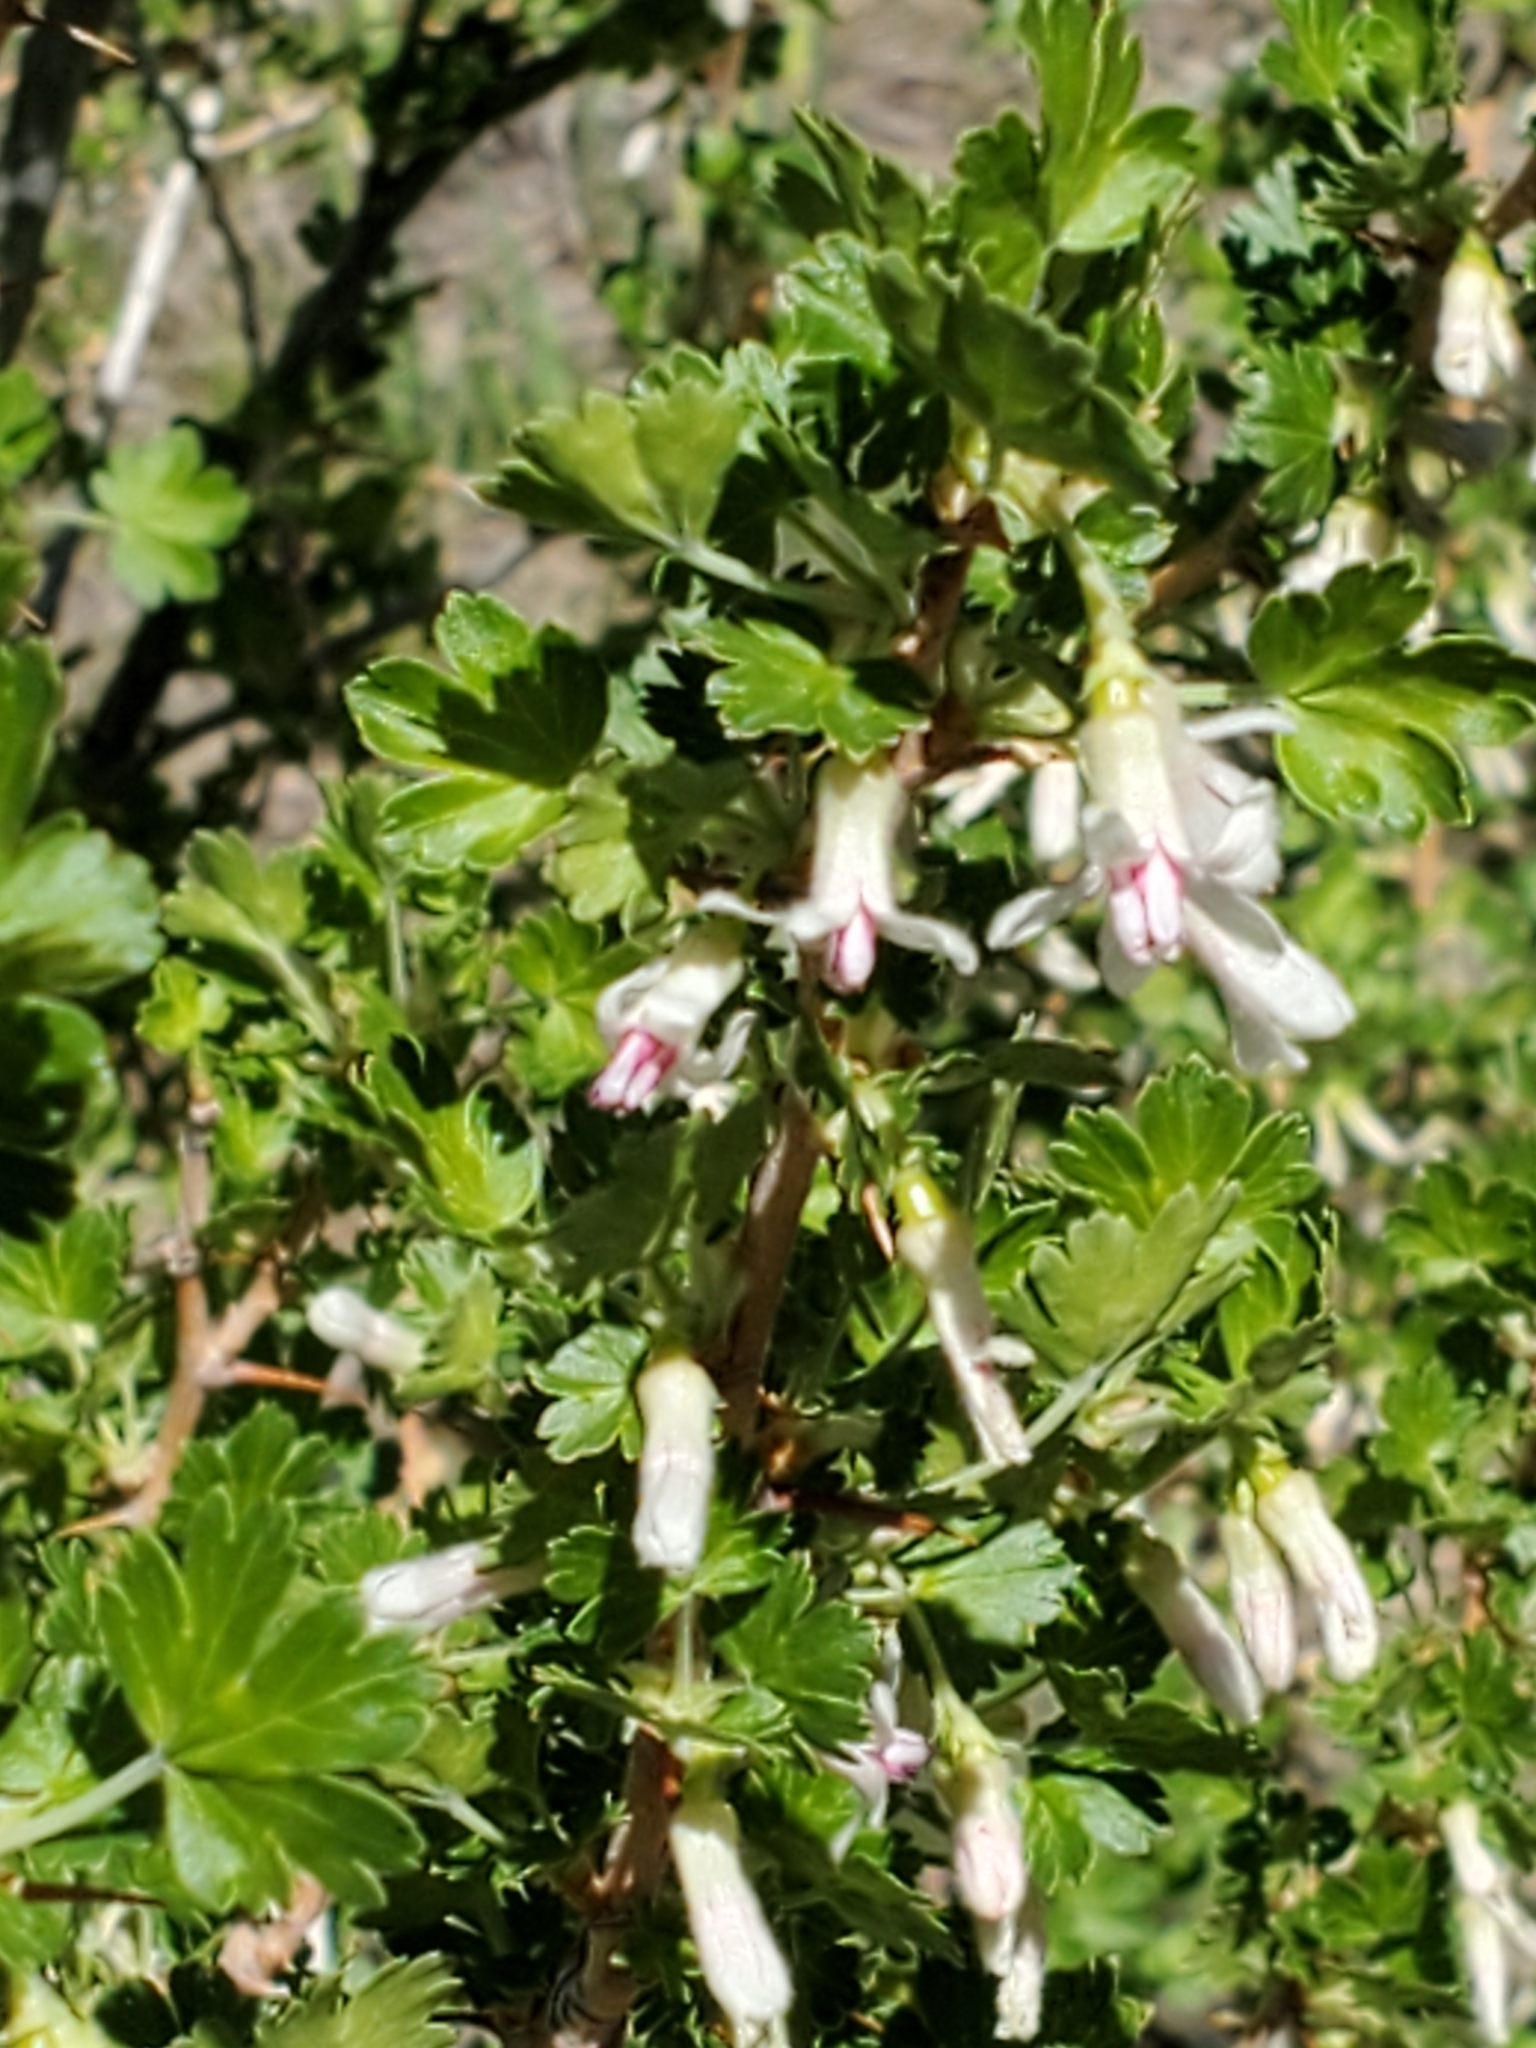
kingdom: Plantae
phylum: Tracheophyta
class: Magnoliopsida
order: Saxifragales
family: Grossulariaceae
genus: Ribes
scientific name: Ribes leptanthum
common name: Trumpet gooseberry
